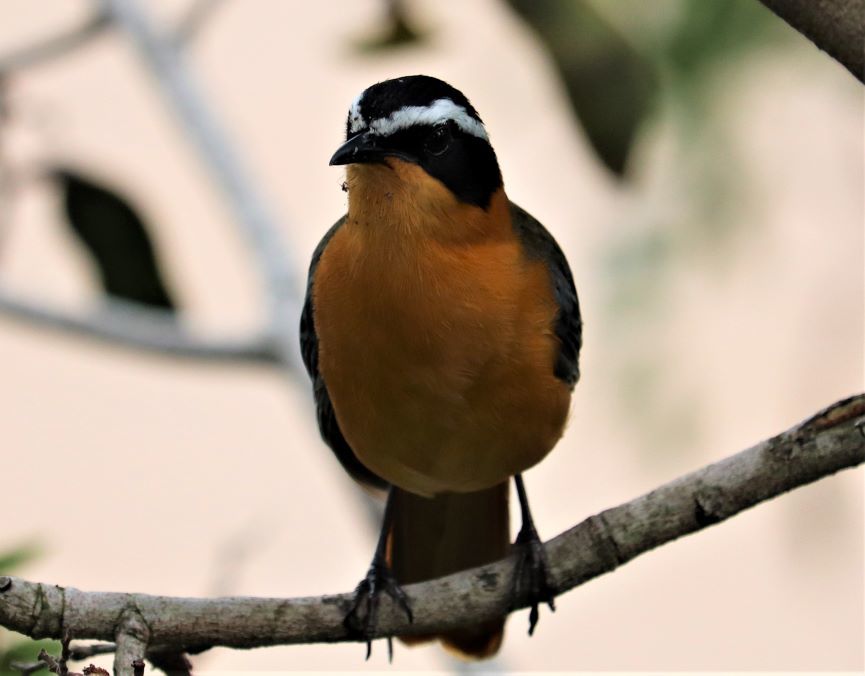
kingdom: Animalia
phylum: Chordata
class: Aves
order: Passeriformes
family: Muscicapidae
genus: Cossypha
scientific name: Cossypha heuglini
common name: White-browed robin-chat
